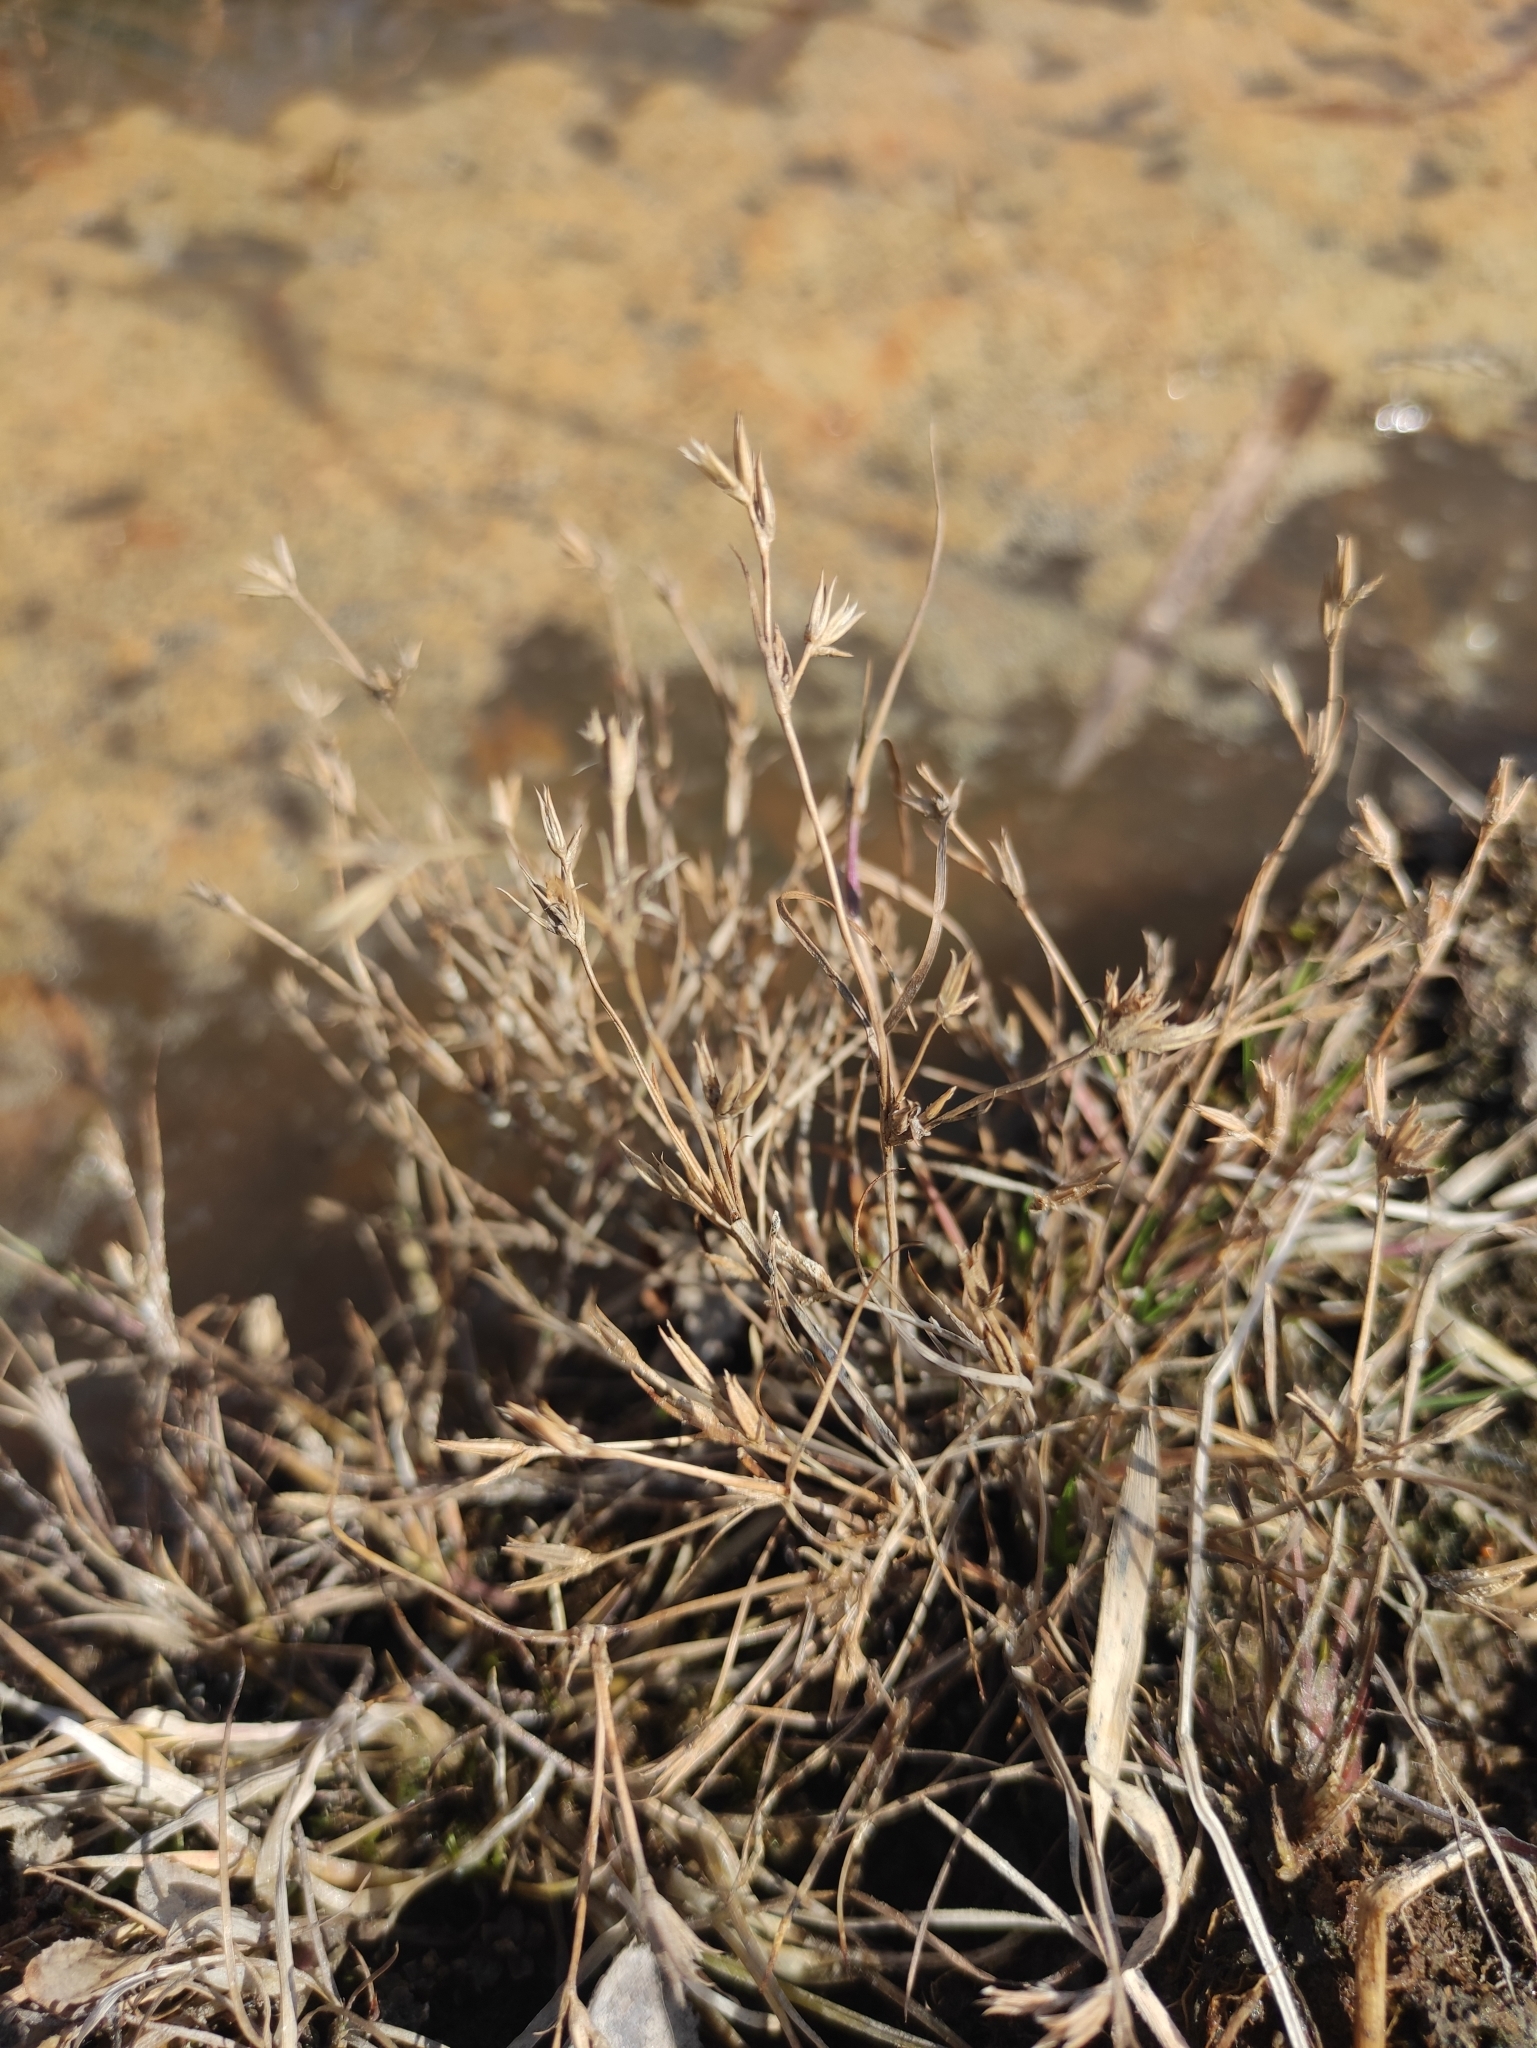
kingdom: Plantae
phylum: Tracheophyta
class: Liliopsida
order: Poales
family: Juncaceae
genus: Juncus
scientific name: Juncus bufonius
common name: Toad rush
